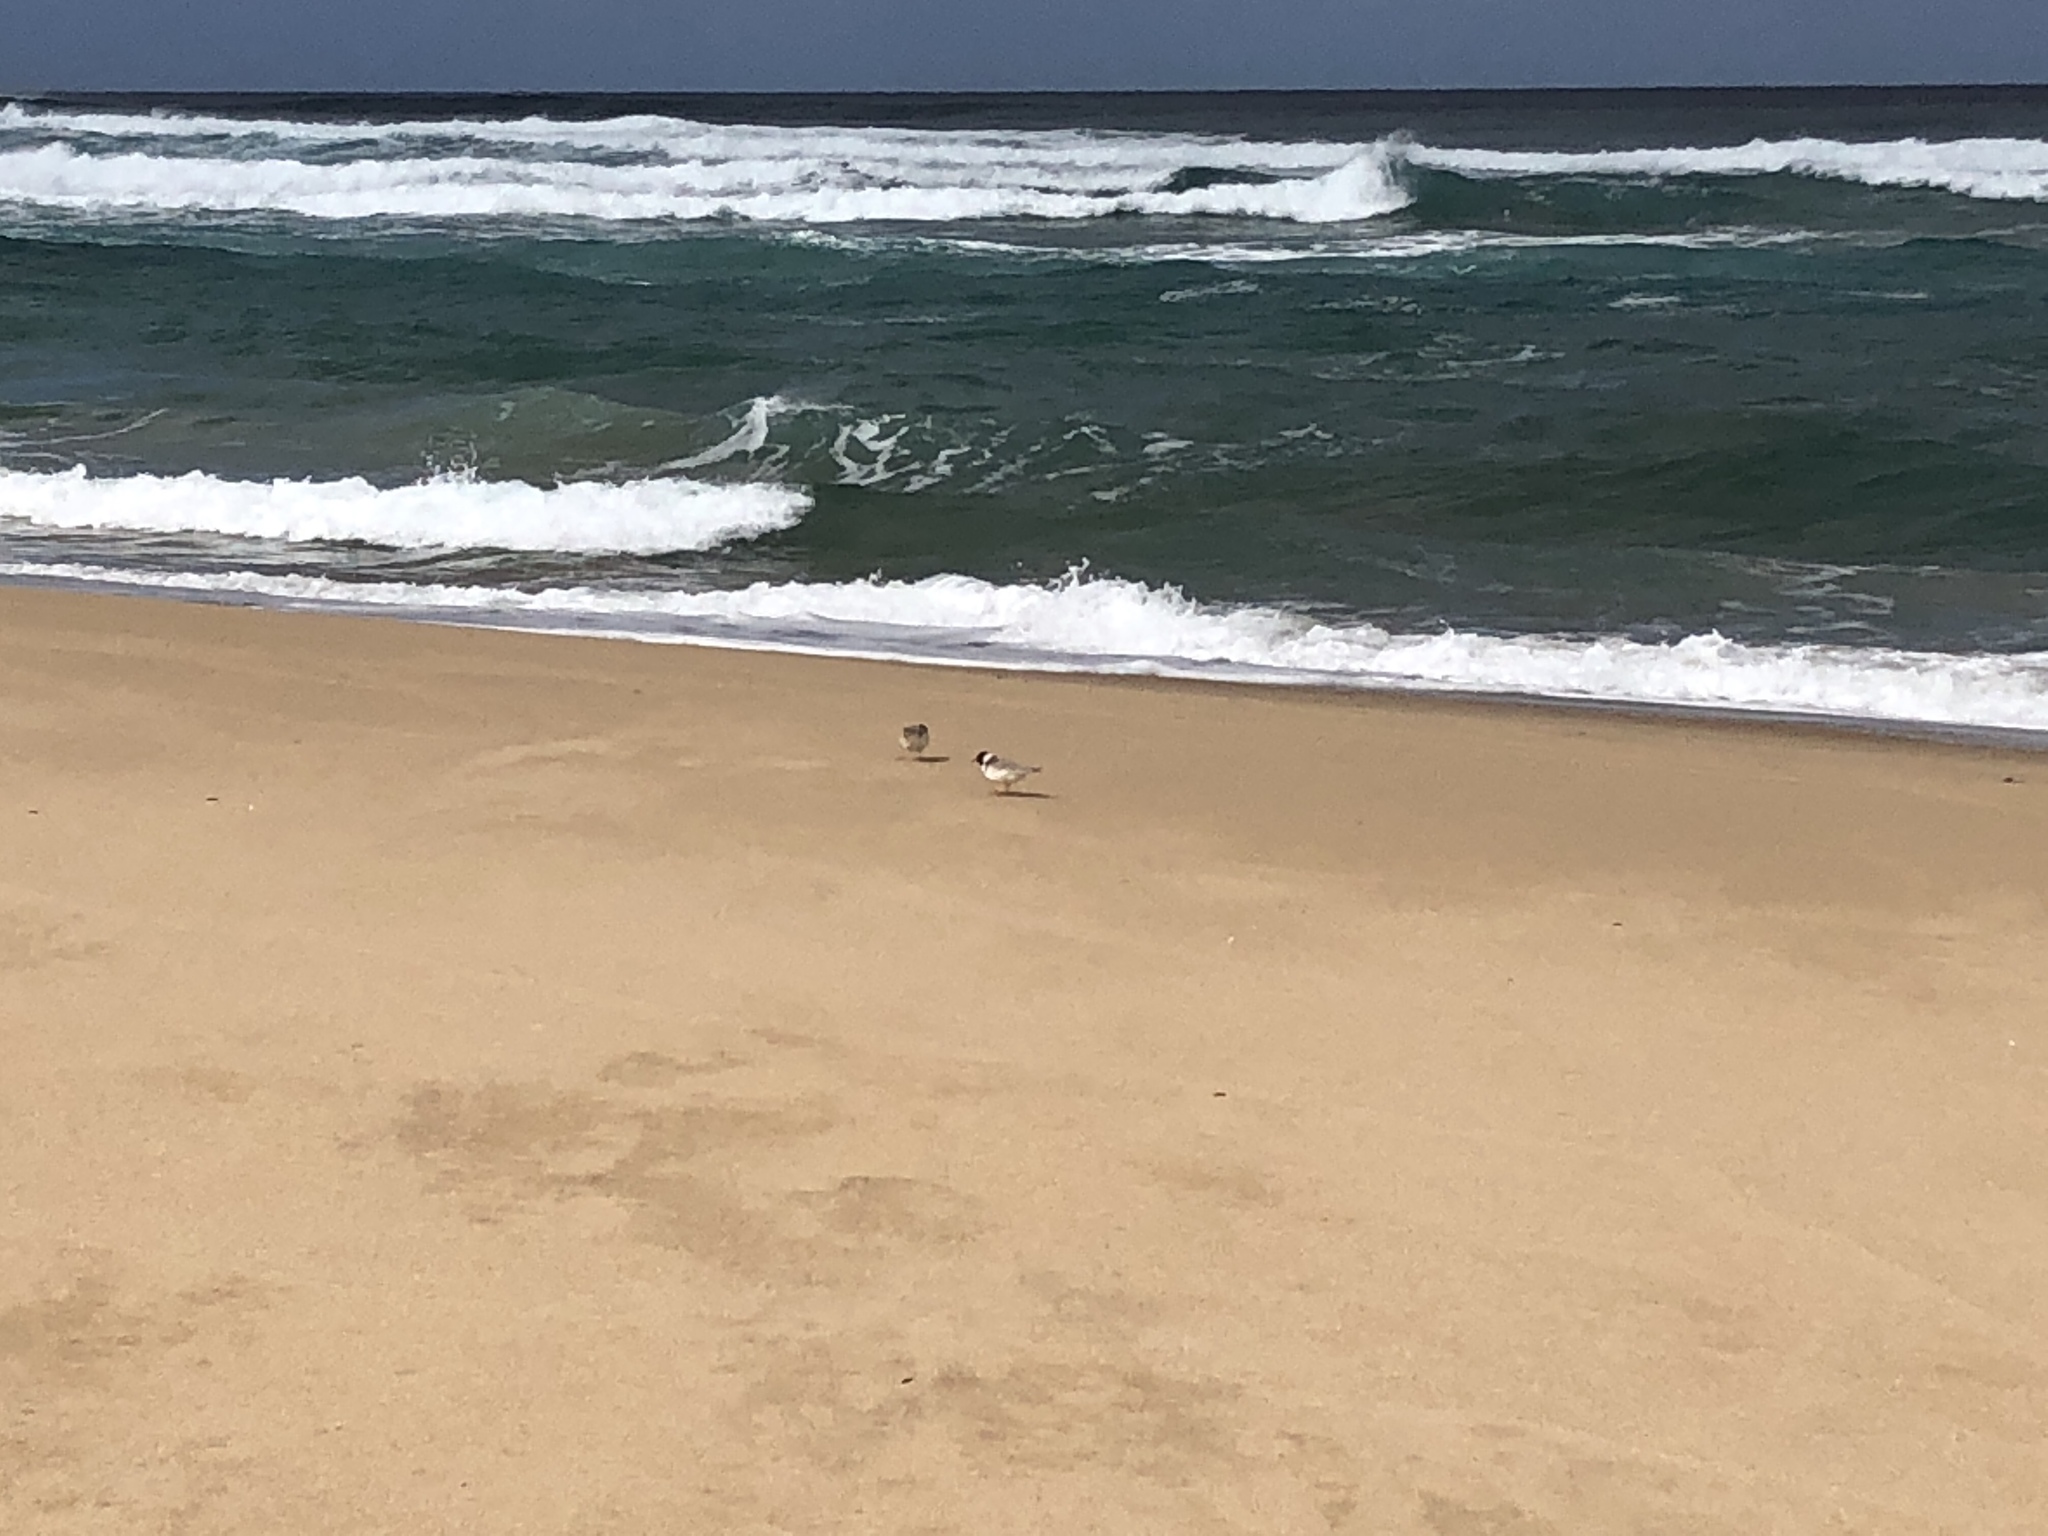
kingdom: Animalia
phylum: Chordata
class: Aves
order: Charadriiformes
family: Charadriidae
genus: Thinornis
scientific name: Thinornis cucullatus
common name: Hooded dotterel
